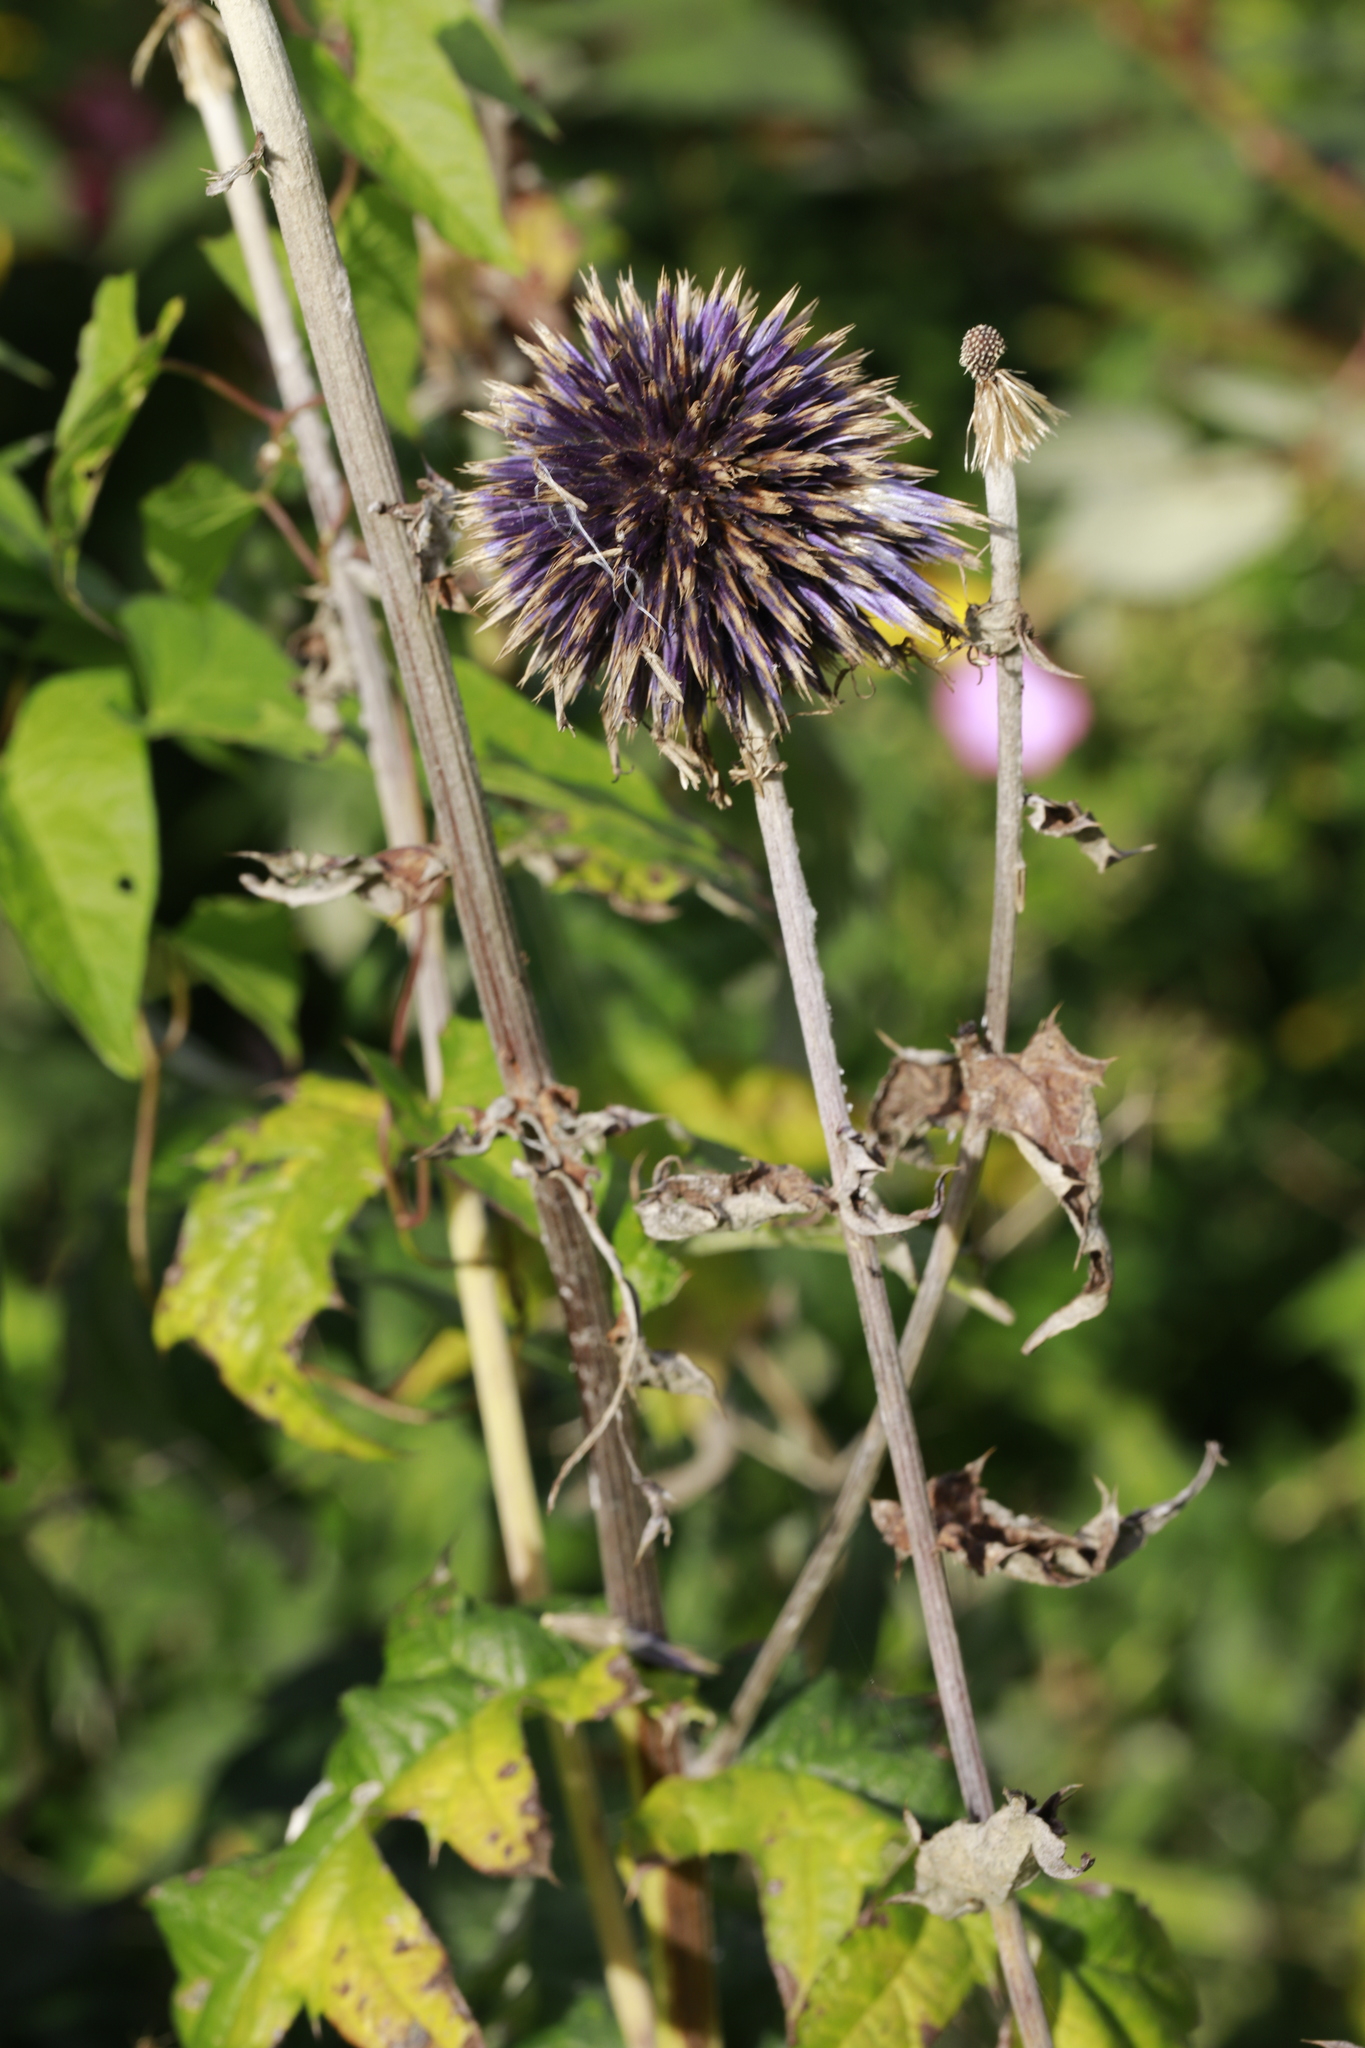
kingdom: Plantae
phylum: Tracheophyta
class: Magnoliopsida
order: Asterales
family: Asteraceae
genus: Echinops
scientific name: Echinops bannaticus
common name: Blue globe-thistle
